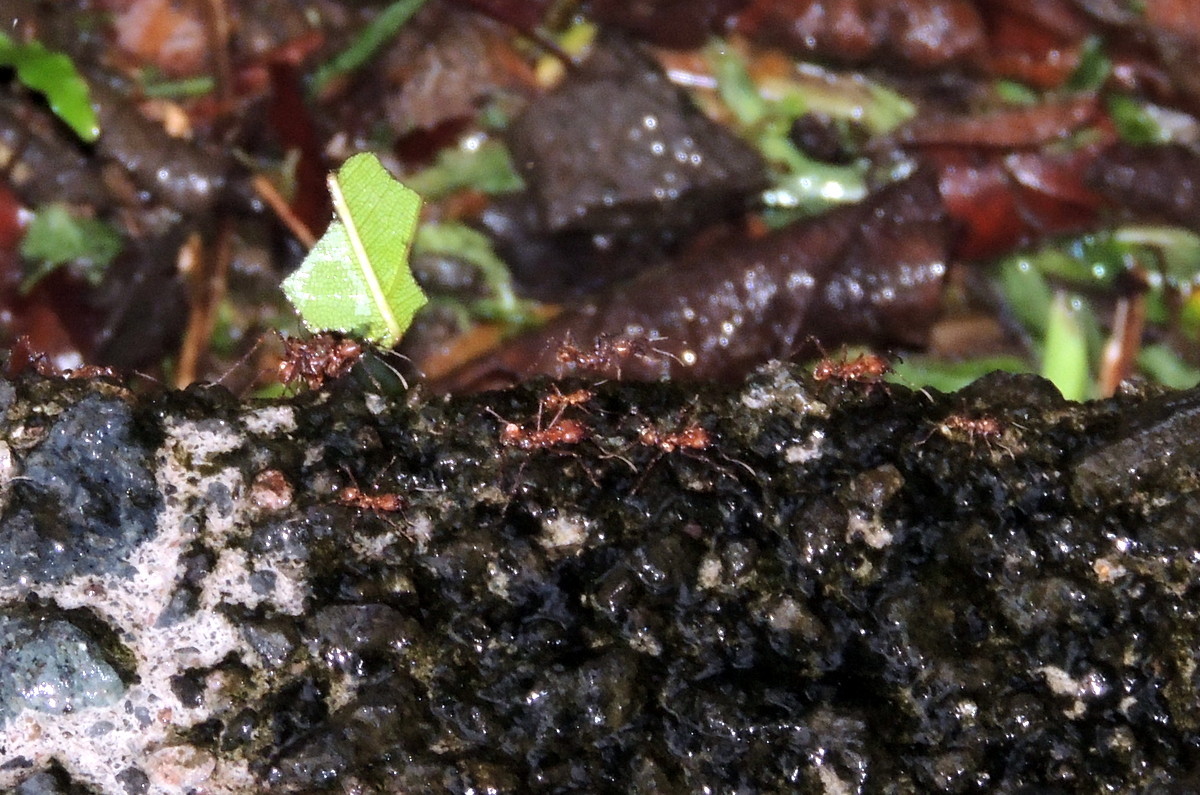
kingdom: Animalia
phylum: Arthropoda
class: Insecta
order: Hymenoptera
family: Formicidae
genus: Atta
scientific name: Atta cephalotes
